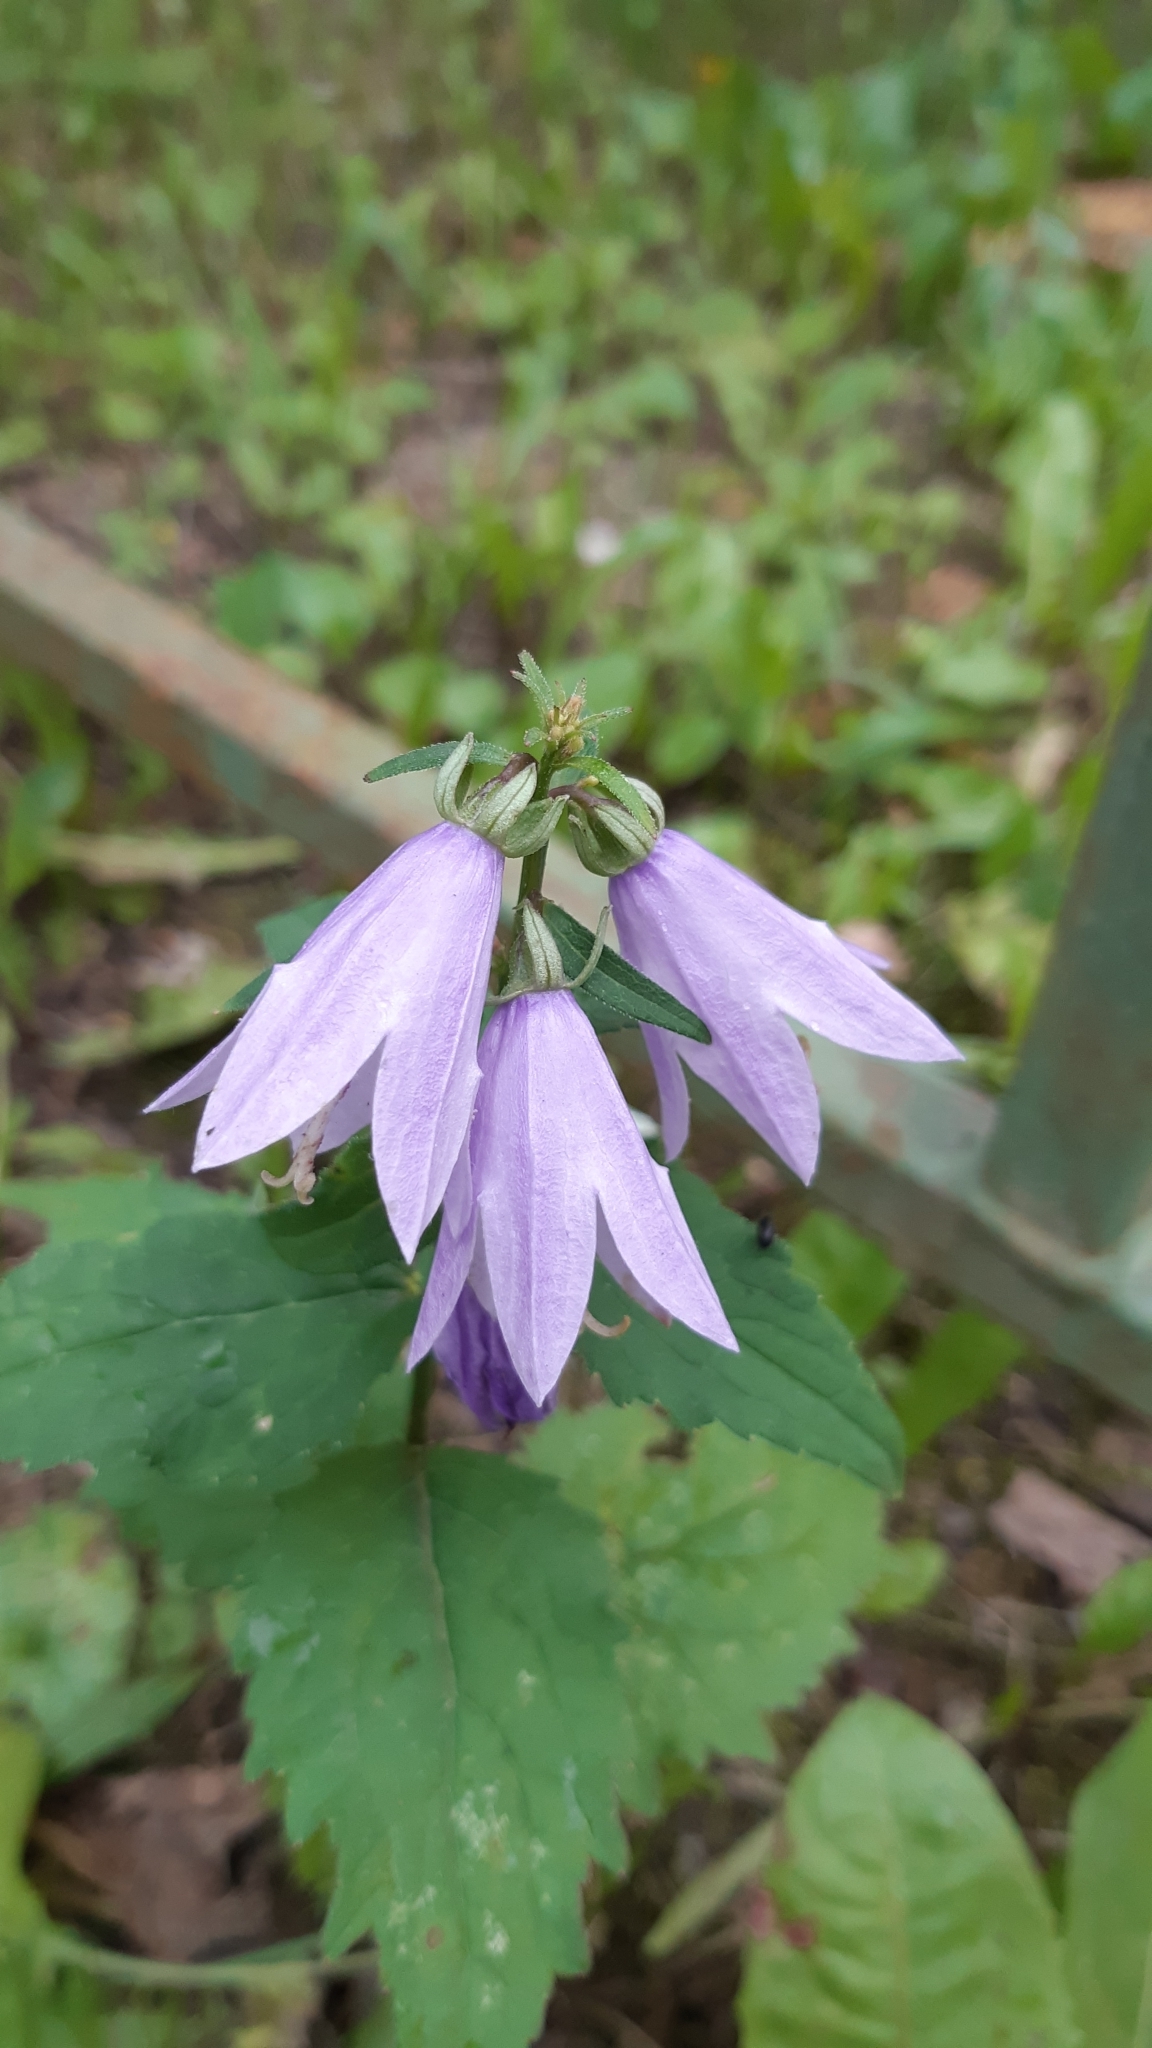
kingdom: Plantae
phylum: Tracheophyta
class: Magnoliopsida
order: Asterales
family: Campanulaceae
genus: Campanula
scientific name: Campanula rapunculoides
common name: Creeping bellflower
